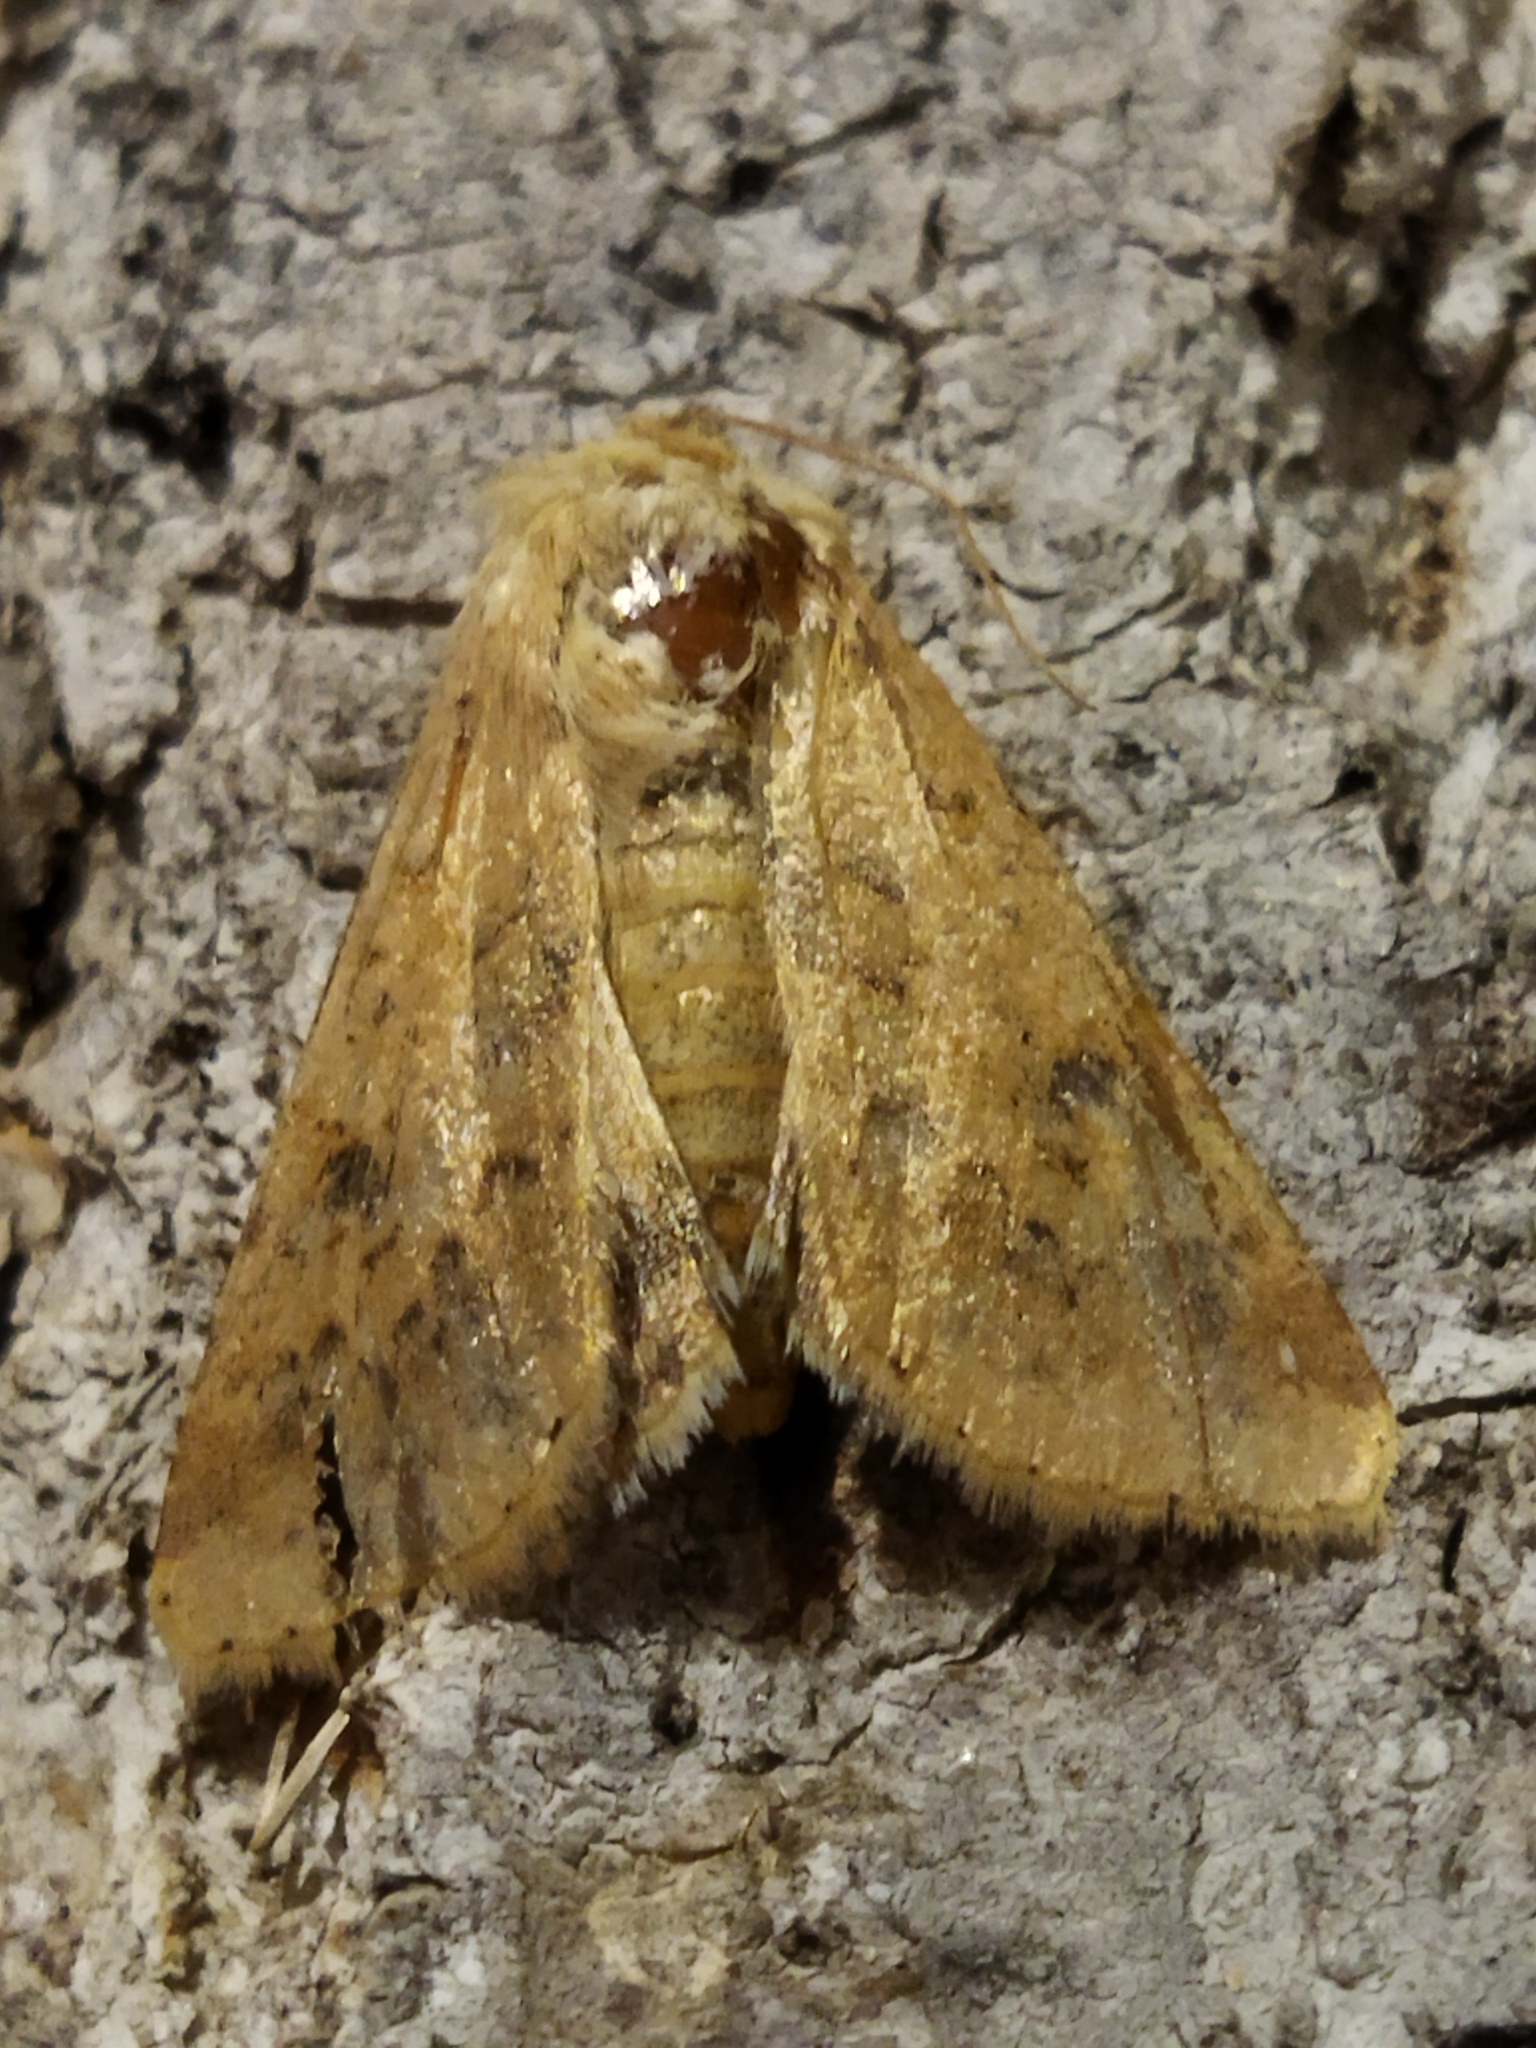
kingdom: Animalia
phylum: Arthropoda
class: Insecta
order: Lepidoptera
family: Noctuidae
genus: Helicoverpa
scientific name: Helicoverpa armigera
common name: Cotton bollworm
